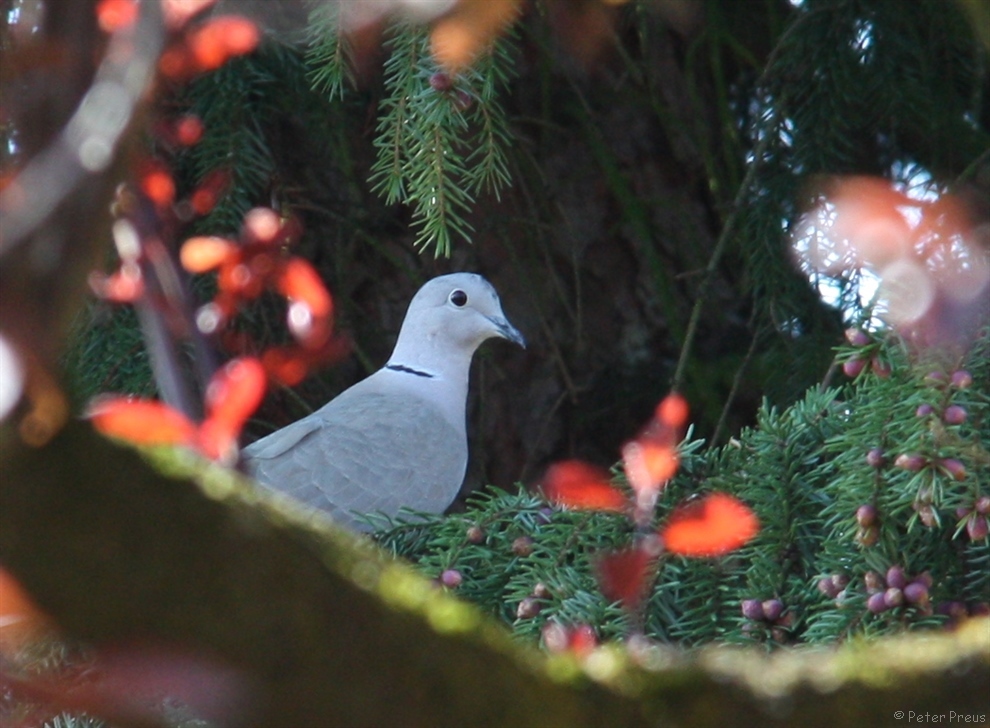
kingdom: Animalia
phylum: Chordata
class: Aves
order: Columbiformes
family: Columbidae
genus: Streptopelia
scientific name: Streptopelia decaocto
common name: Eurasian collared dove
